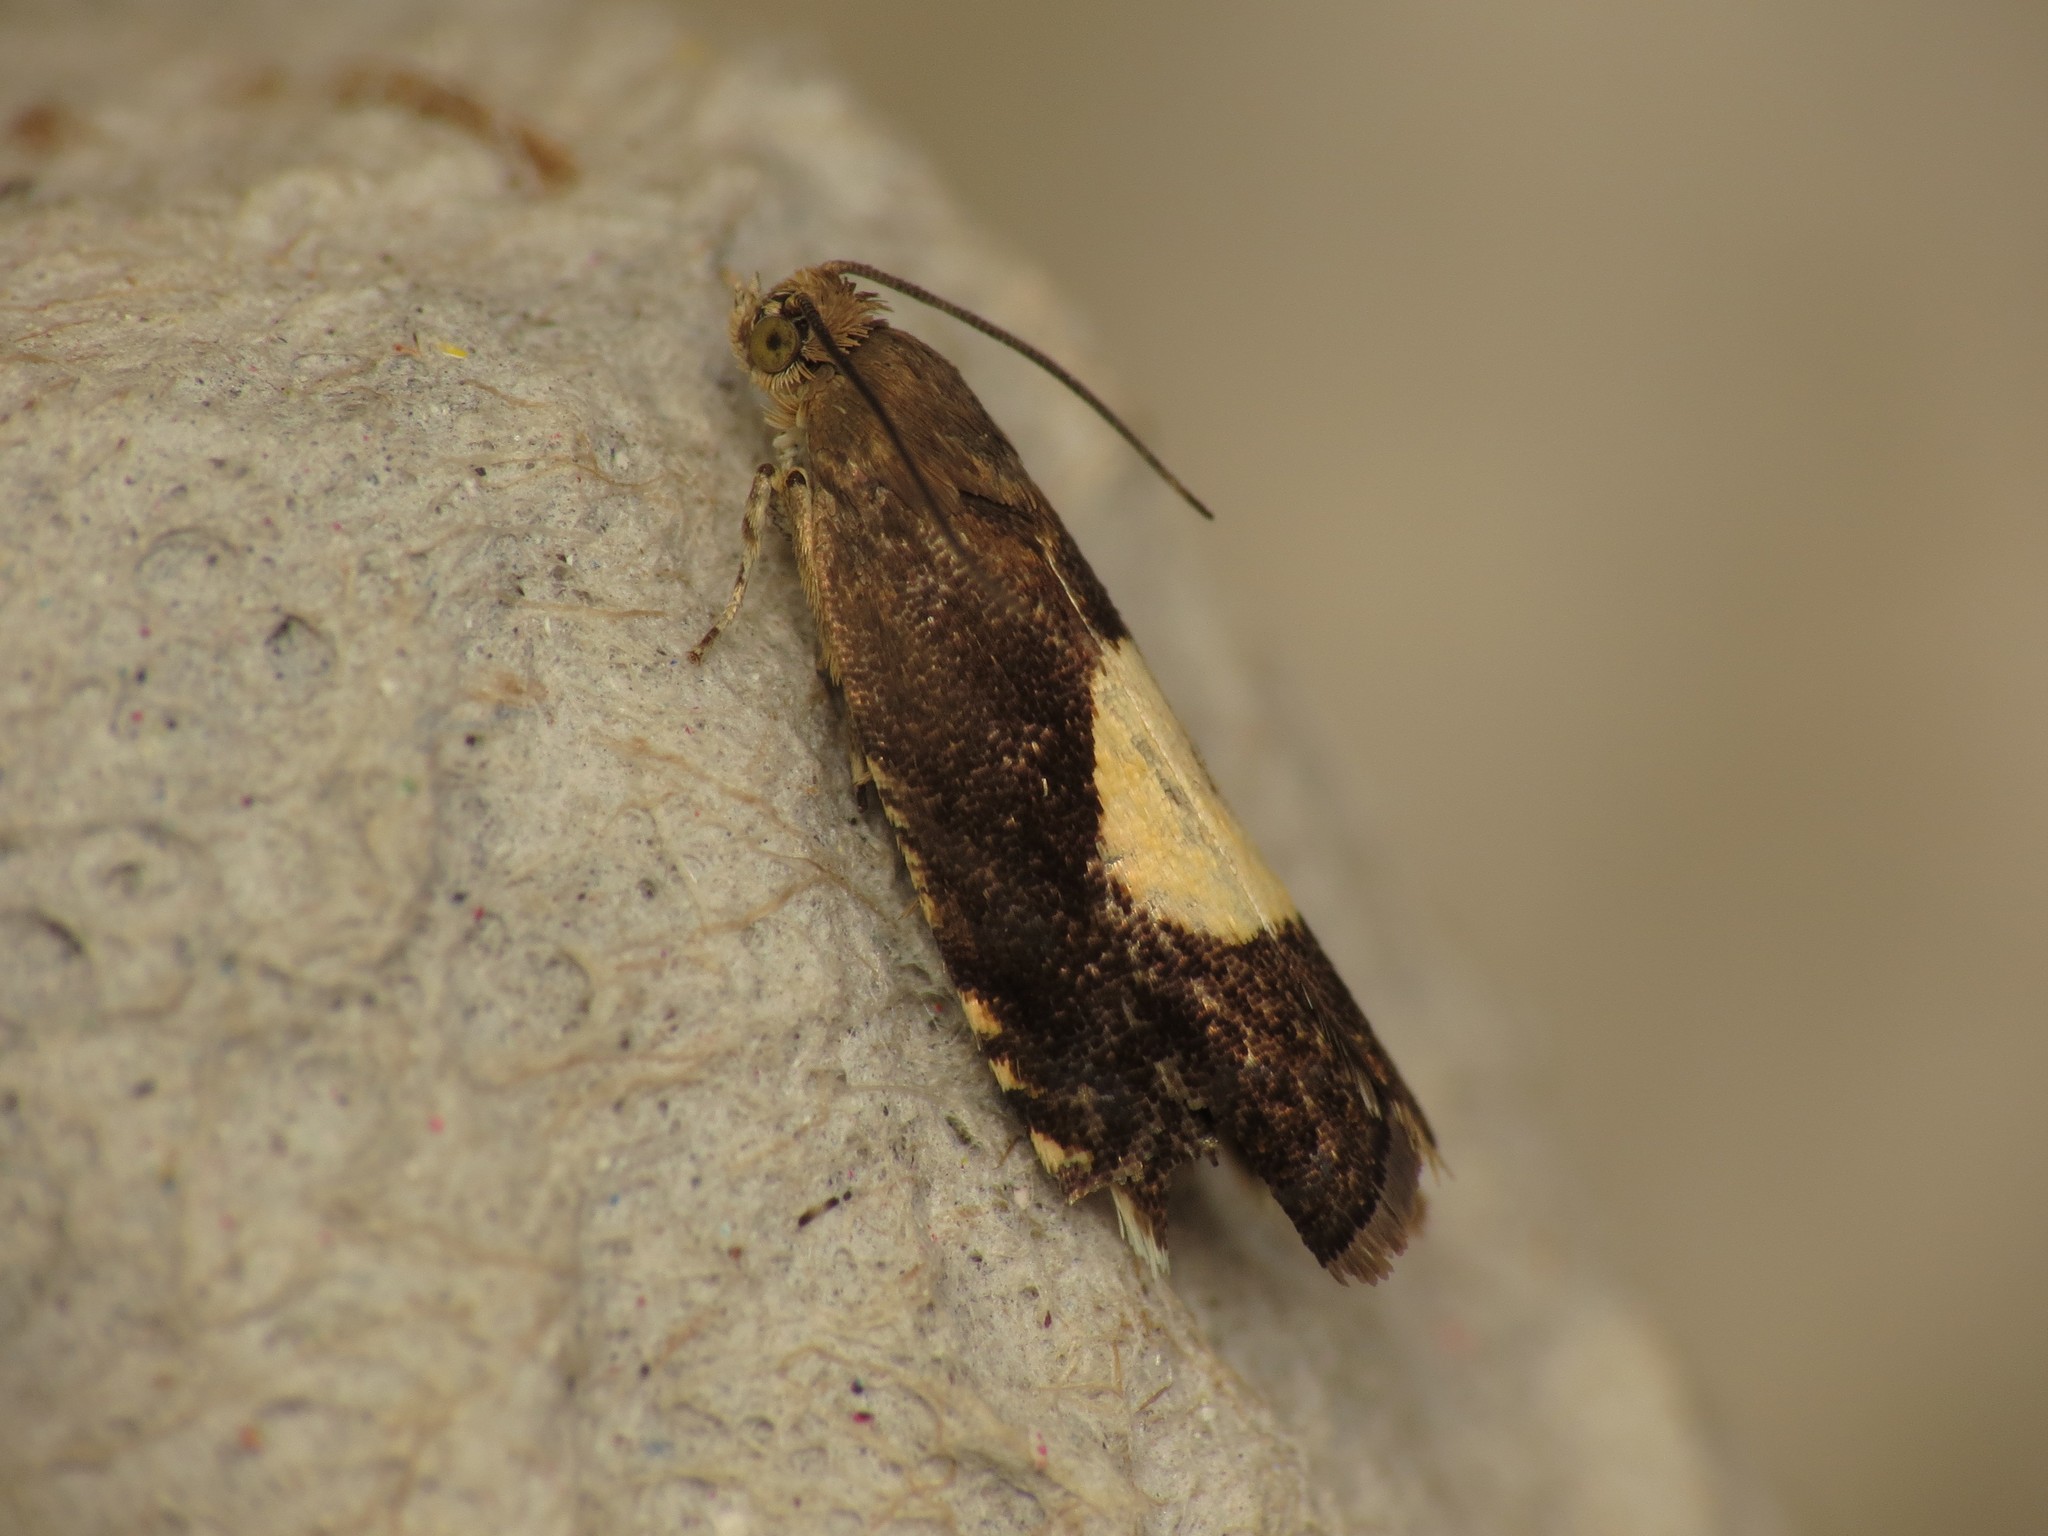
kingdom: Animalia
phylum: Arthropoda
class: Insecta
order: Lepidoptera
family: Tortricidae
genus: Pammene
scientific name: Pammene regiana
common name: Regal piercer
